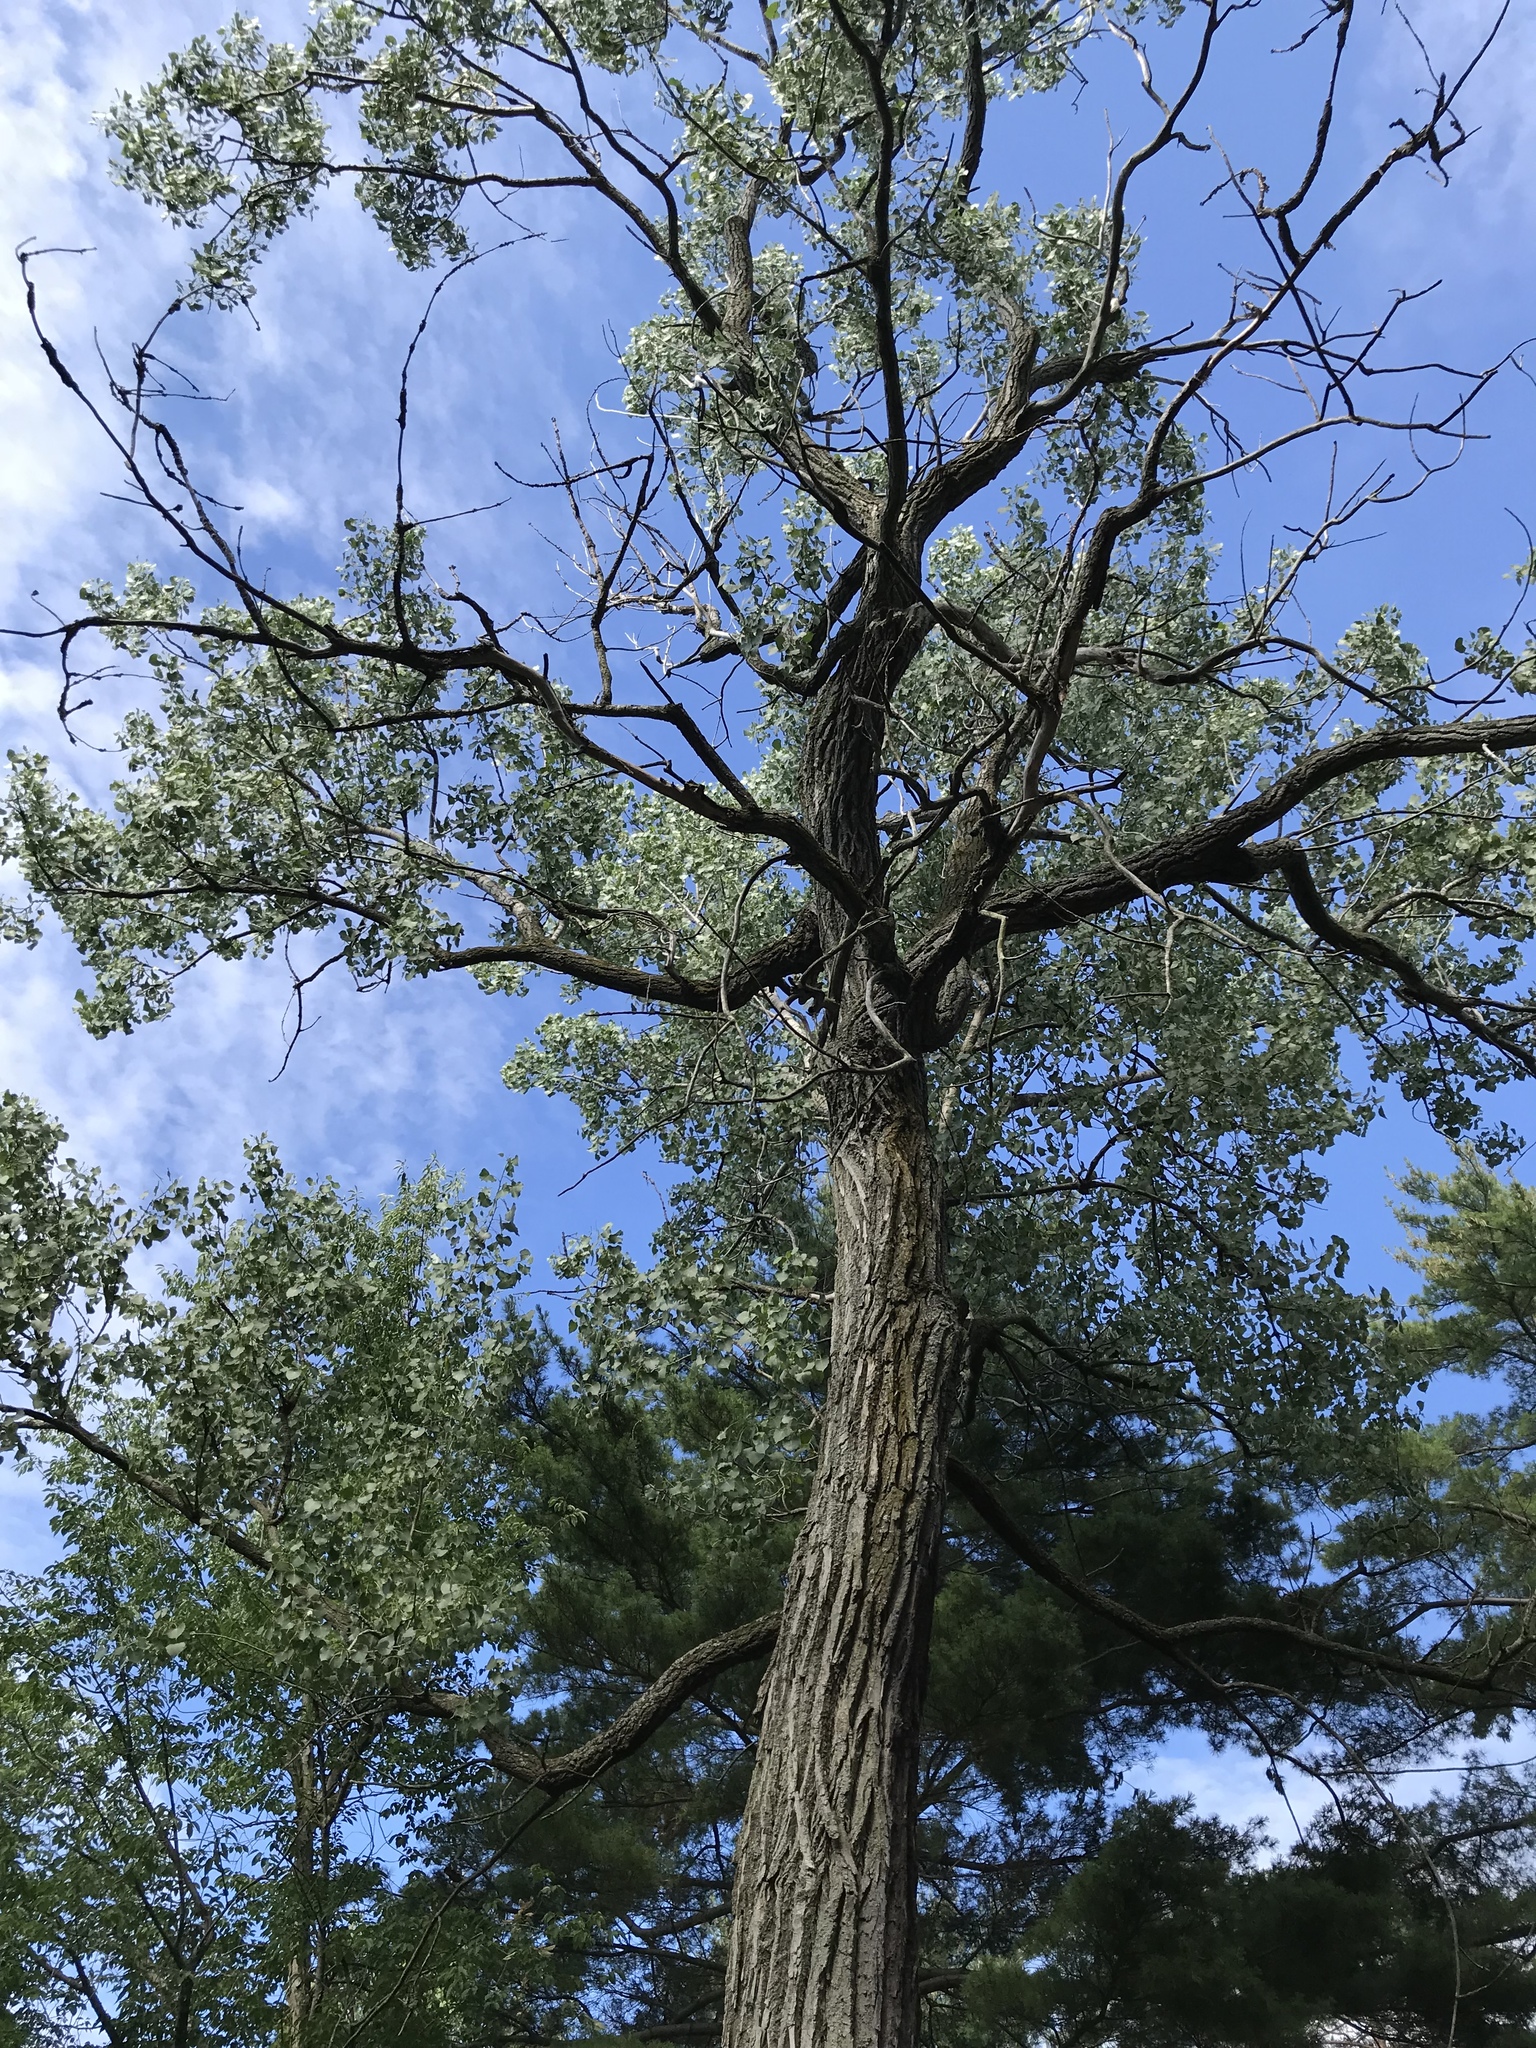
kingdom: Plantae
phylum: Tracheophyta
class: Magnoliopsida
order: Malpighiales
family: Salicaceae
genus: Populus
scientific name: Populus deltoides
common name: Eastern cottonwood
